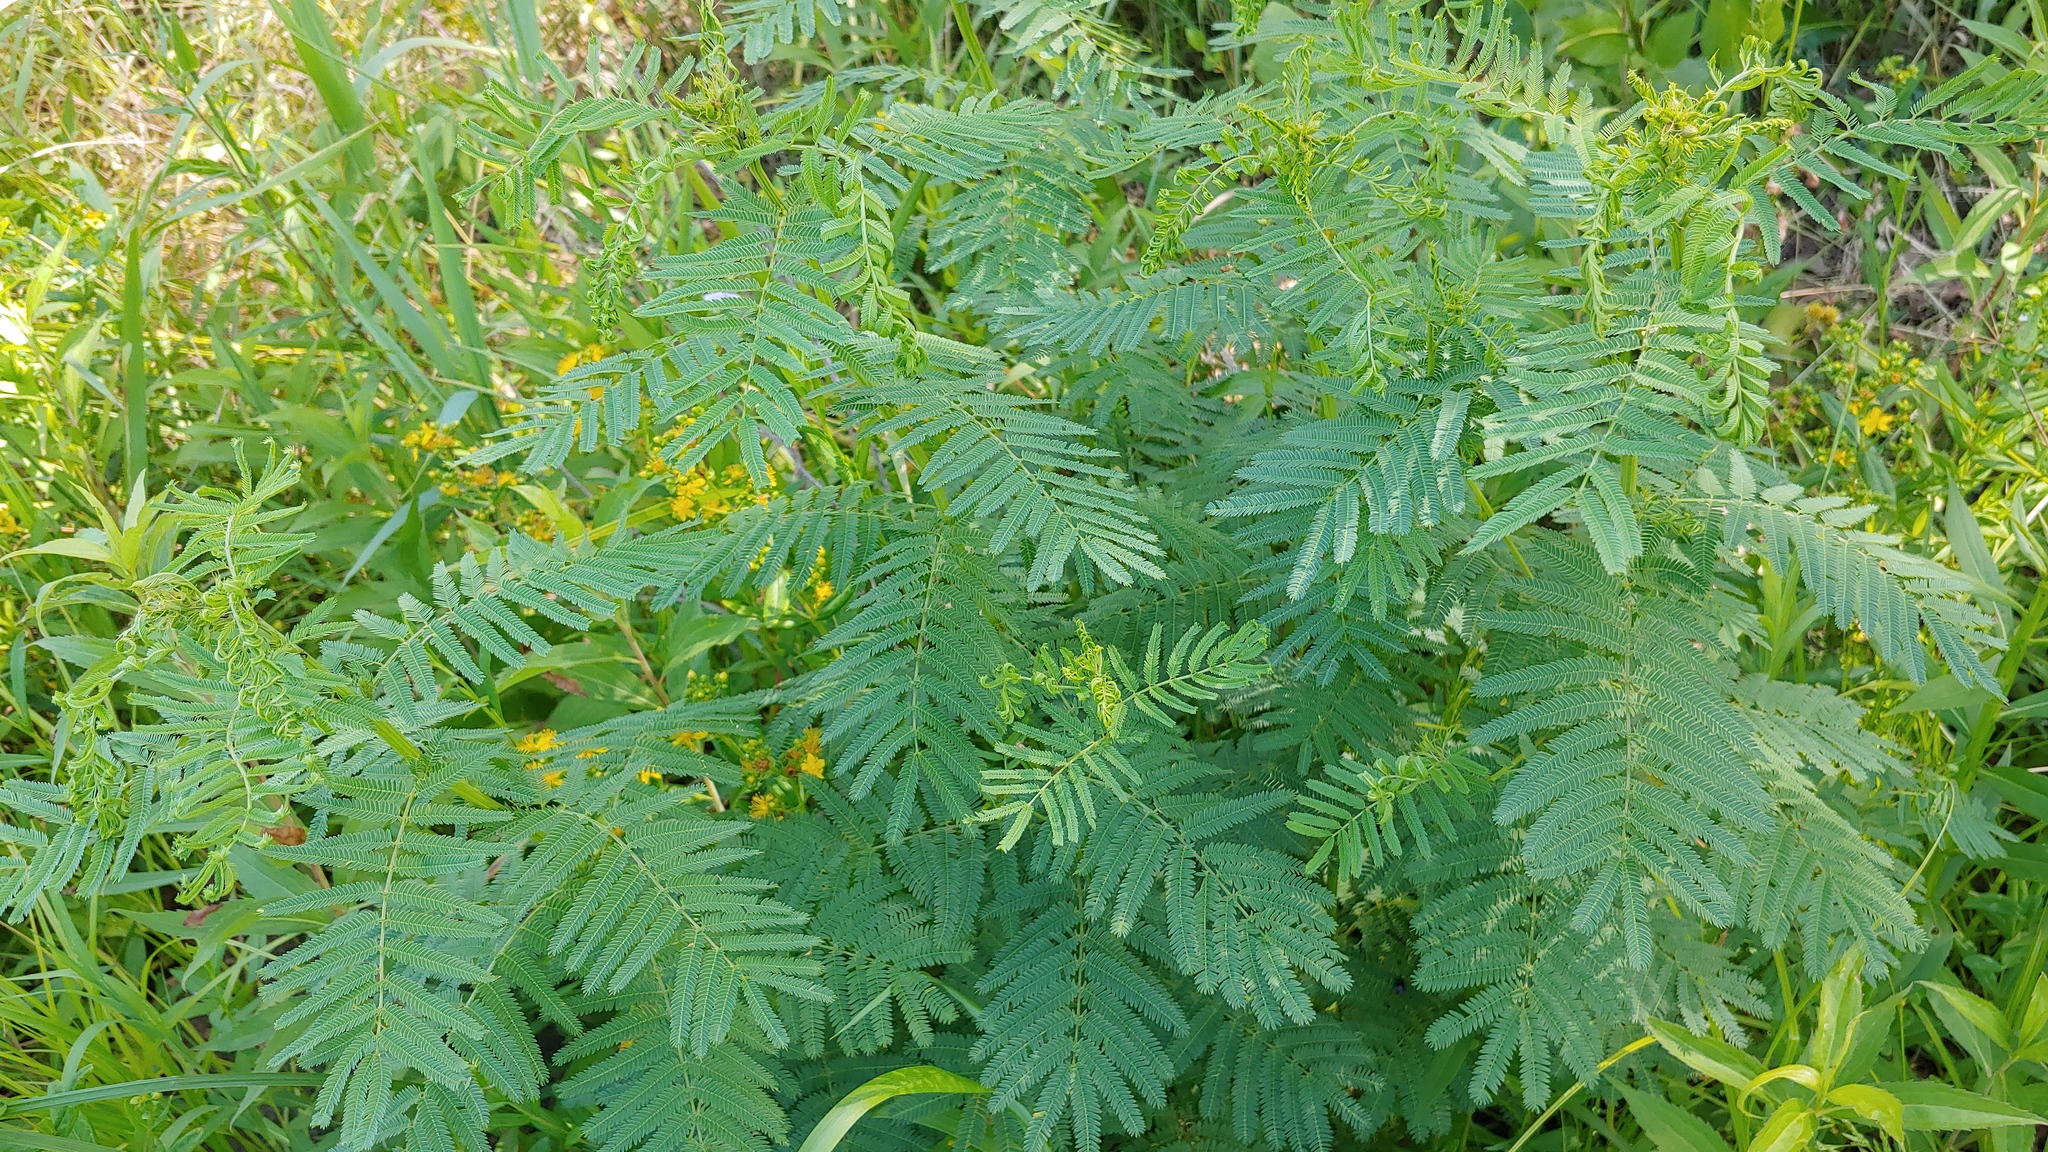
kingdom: Plantae
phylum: Tracheophyta
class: Magnoliopsida
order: Fabales
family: Fabaceae
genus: Desmanthus
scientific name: Desmanthus illinoensis
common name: Illinois bundle-flower
